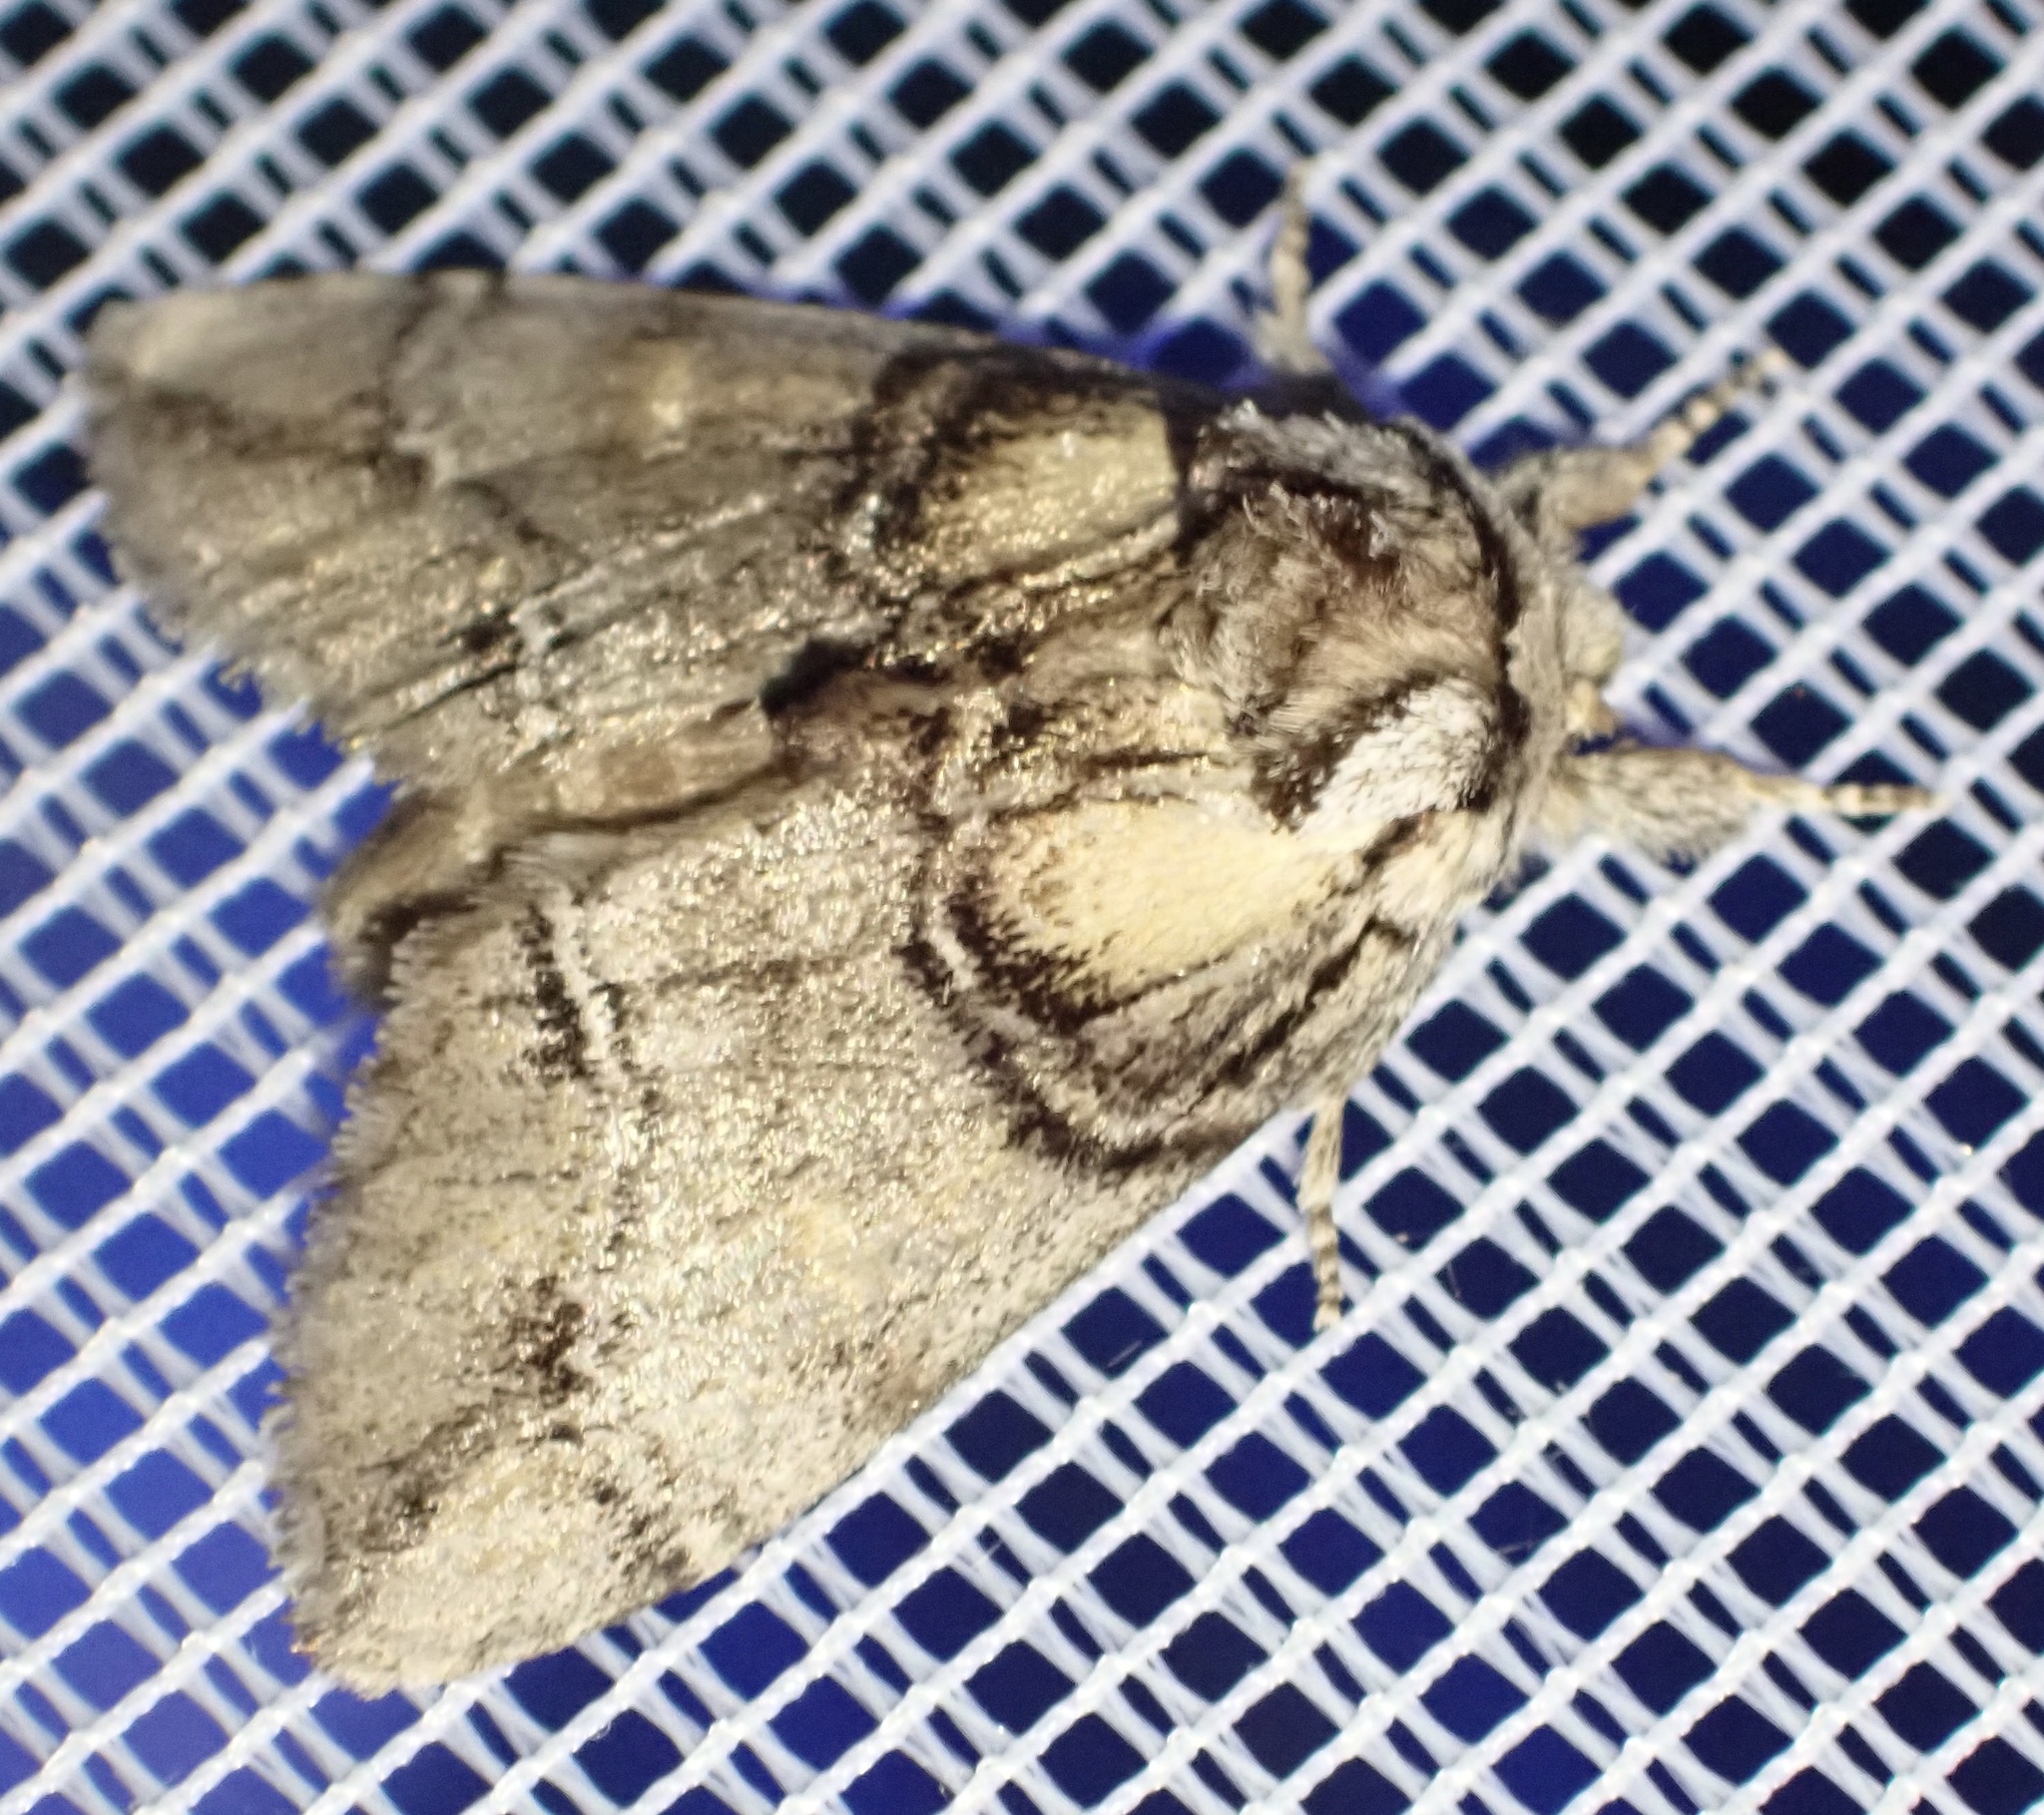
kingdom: Animalia
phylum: Arthropoda
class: Insecta
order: Lepidoptera
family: Notodontidae
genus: Drymonia
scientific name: Drymonia velitaris
